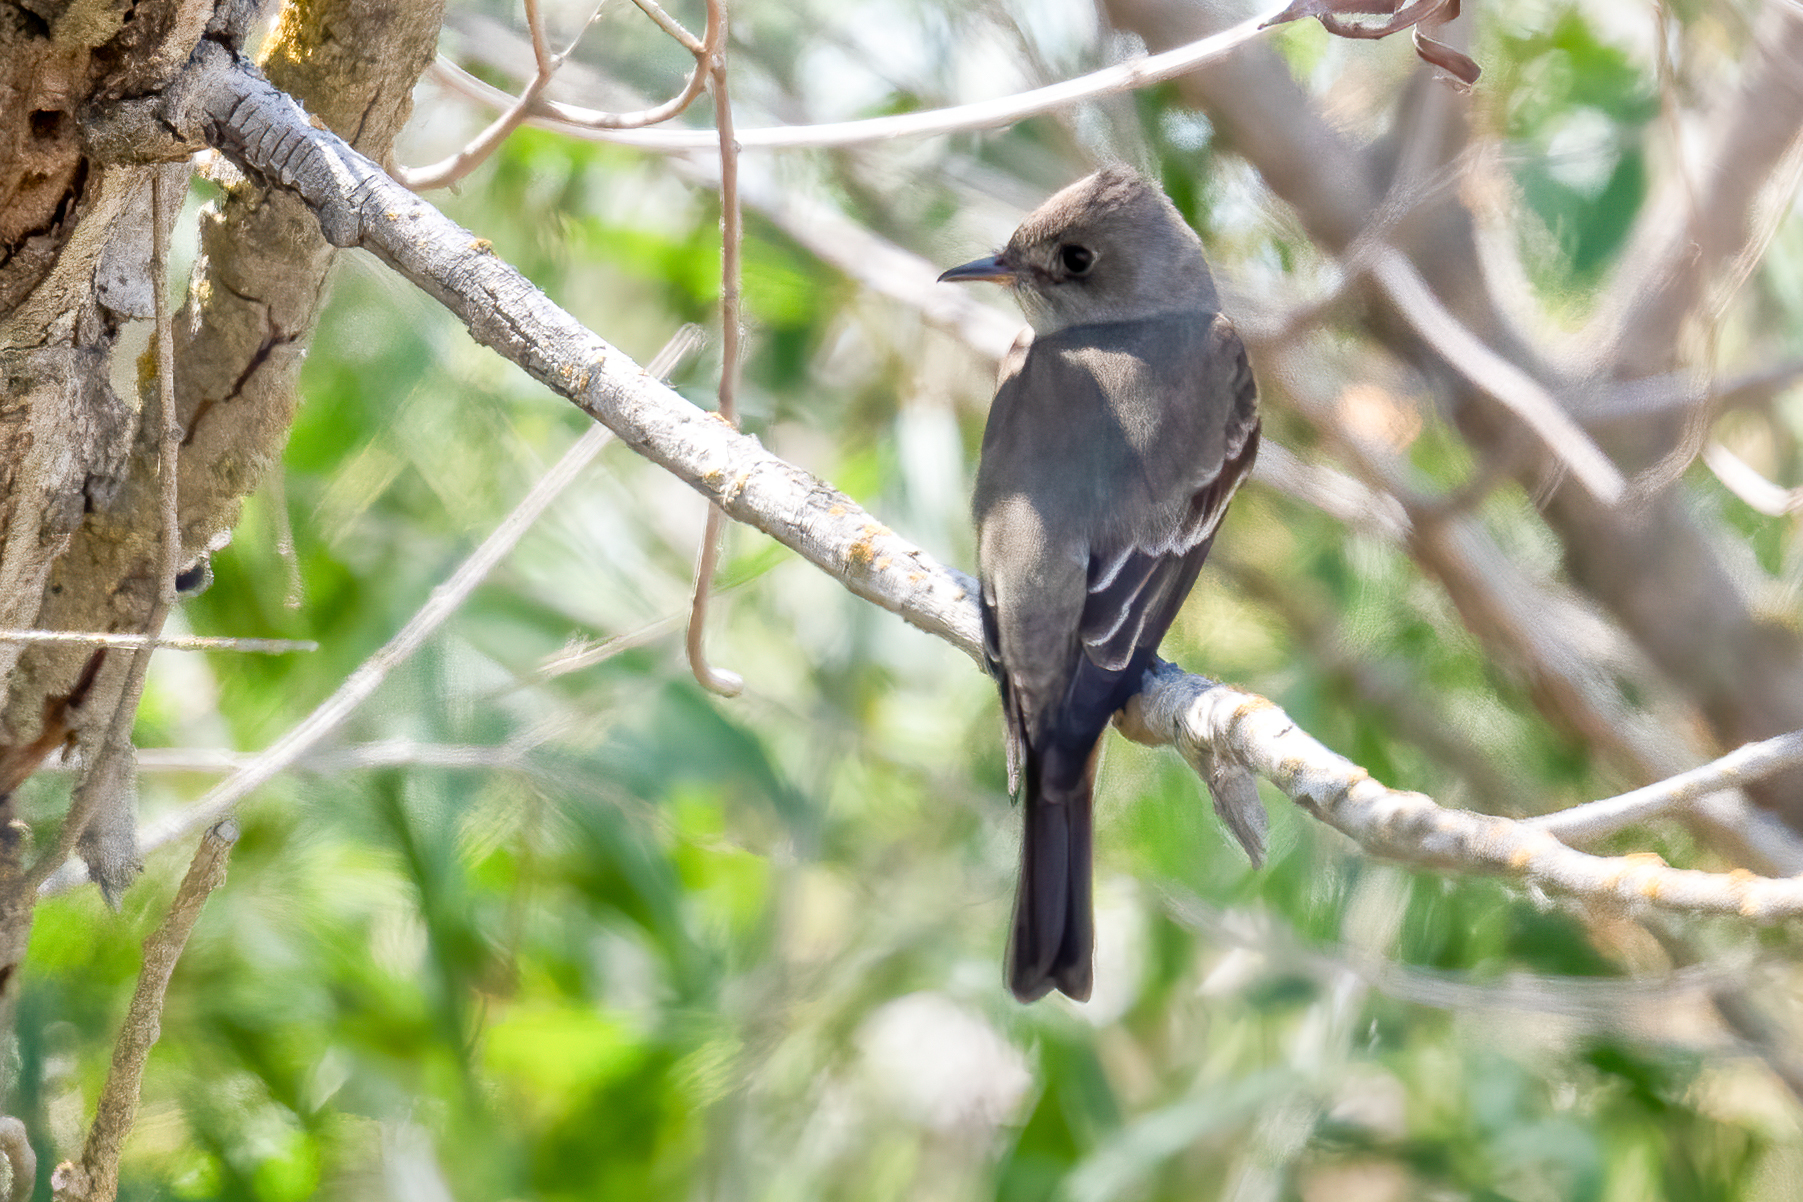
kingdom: Animalia
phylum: Chordata
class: Aves
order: Passeriformes
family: Tyrannidae
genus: Contopus
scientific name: Contopus sordidulus
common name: Western wood-pewee
